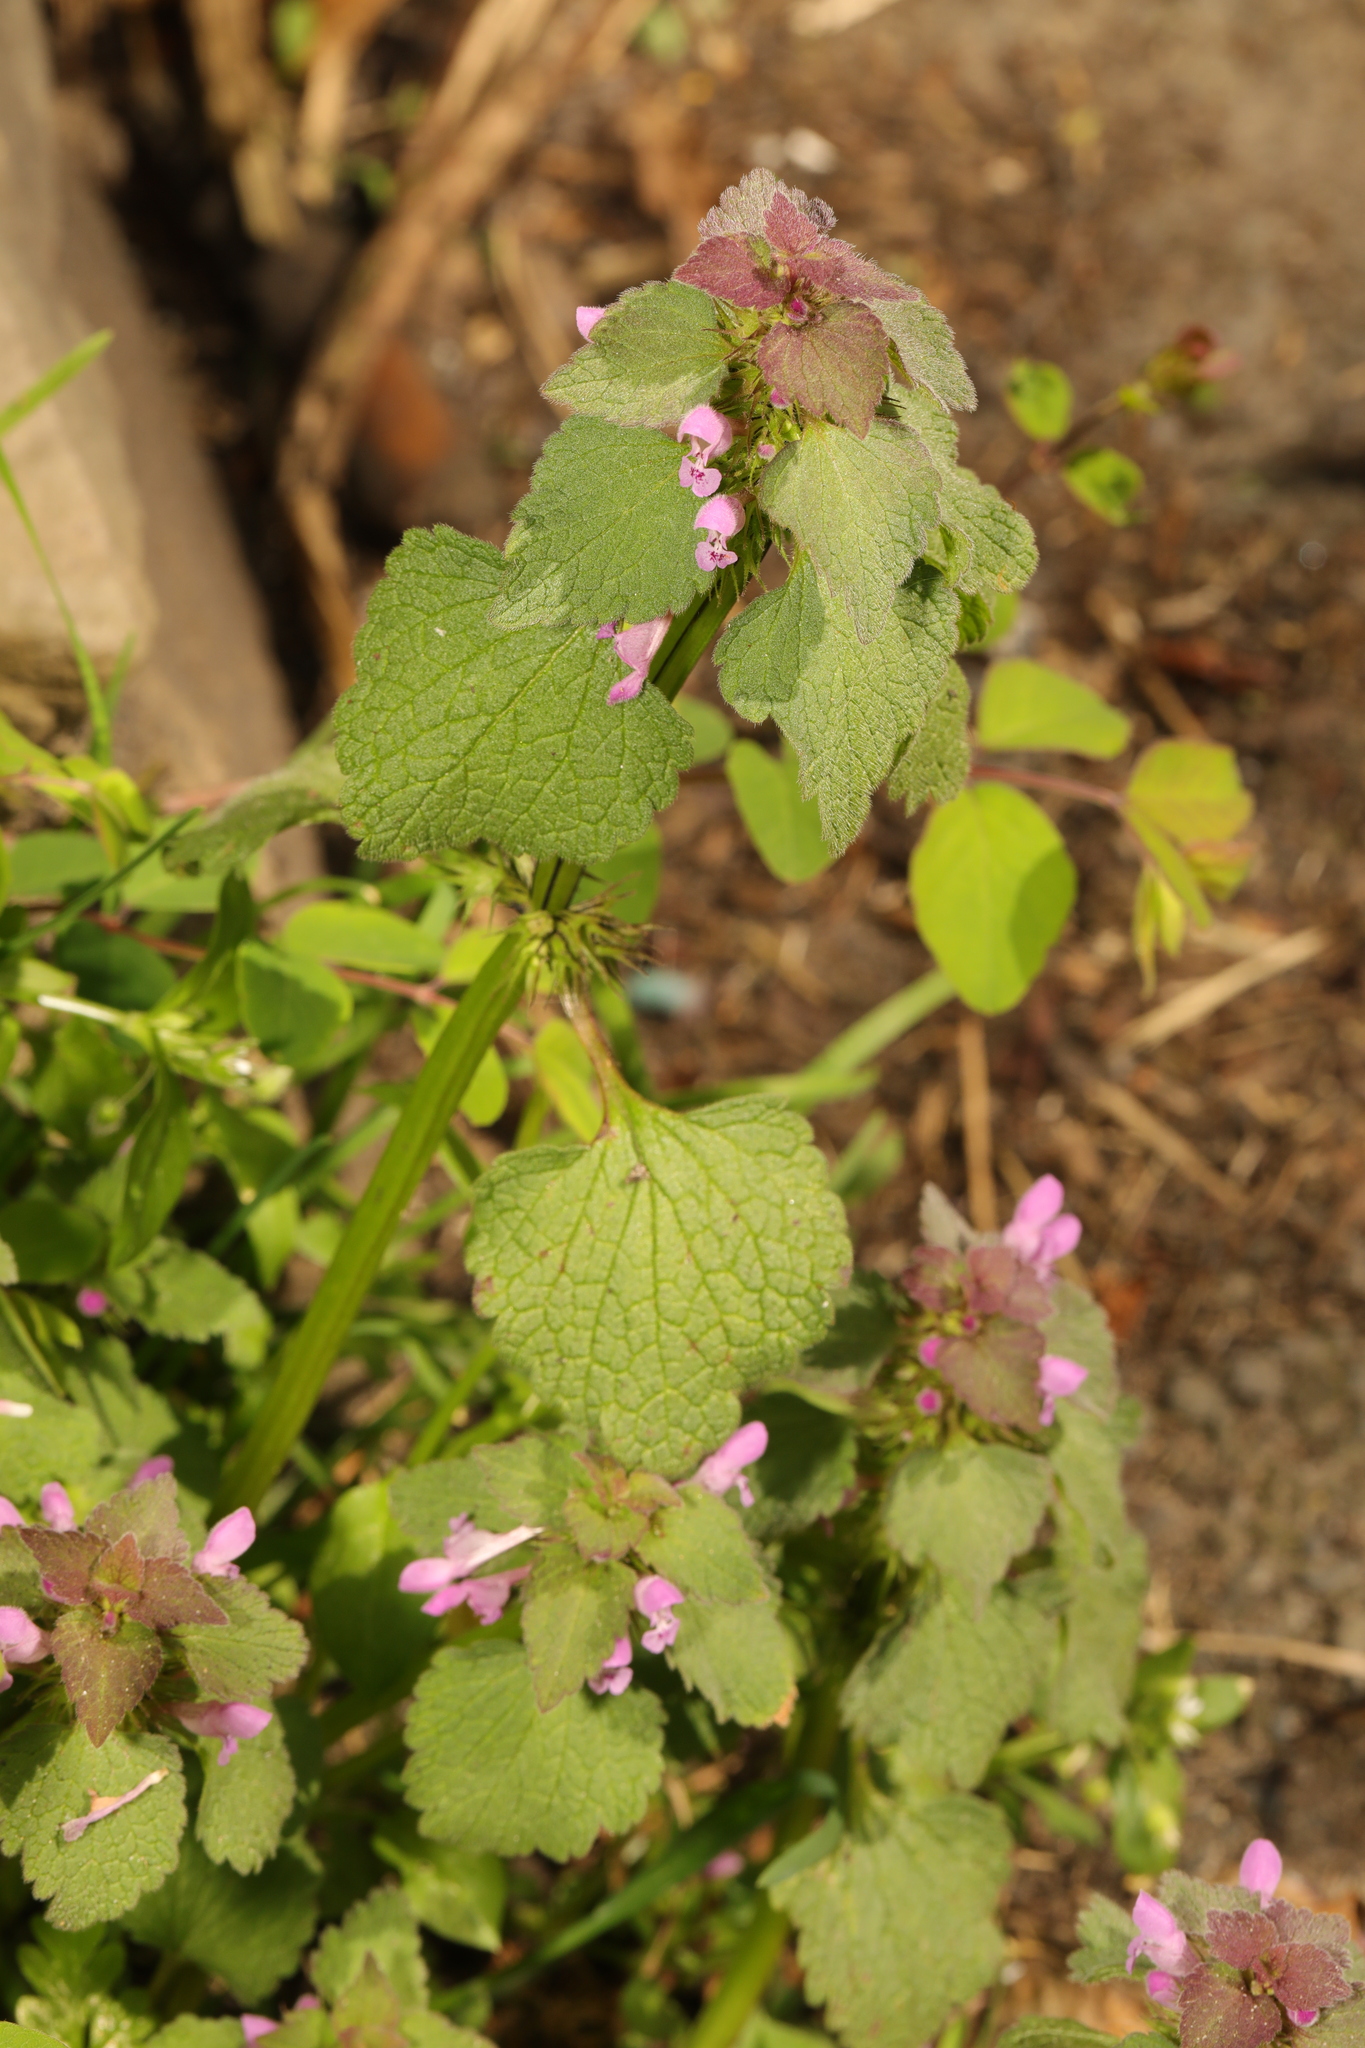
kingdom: Plantae
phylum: Tracheophyta
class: Magnoliopsida
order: Lamiales
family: Lamiaceae
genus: Lamium
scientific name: Lamium purpureum
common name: Red dead-nettle
